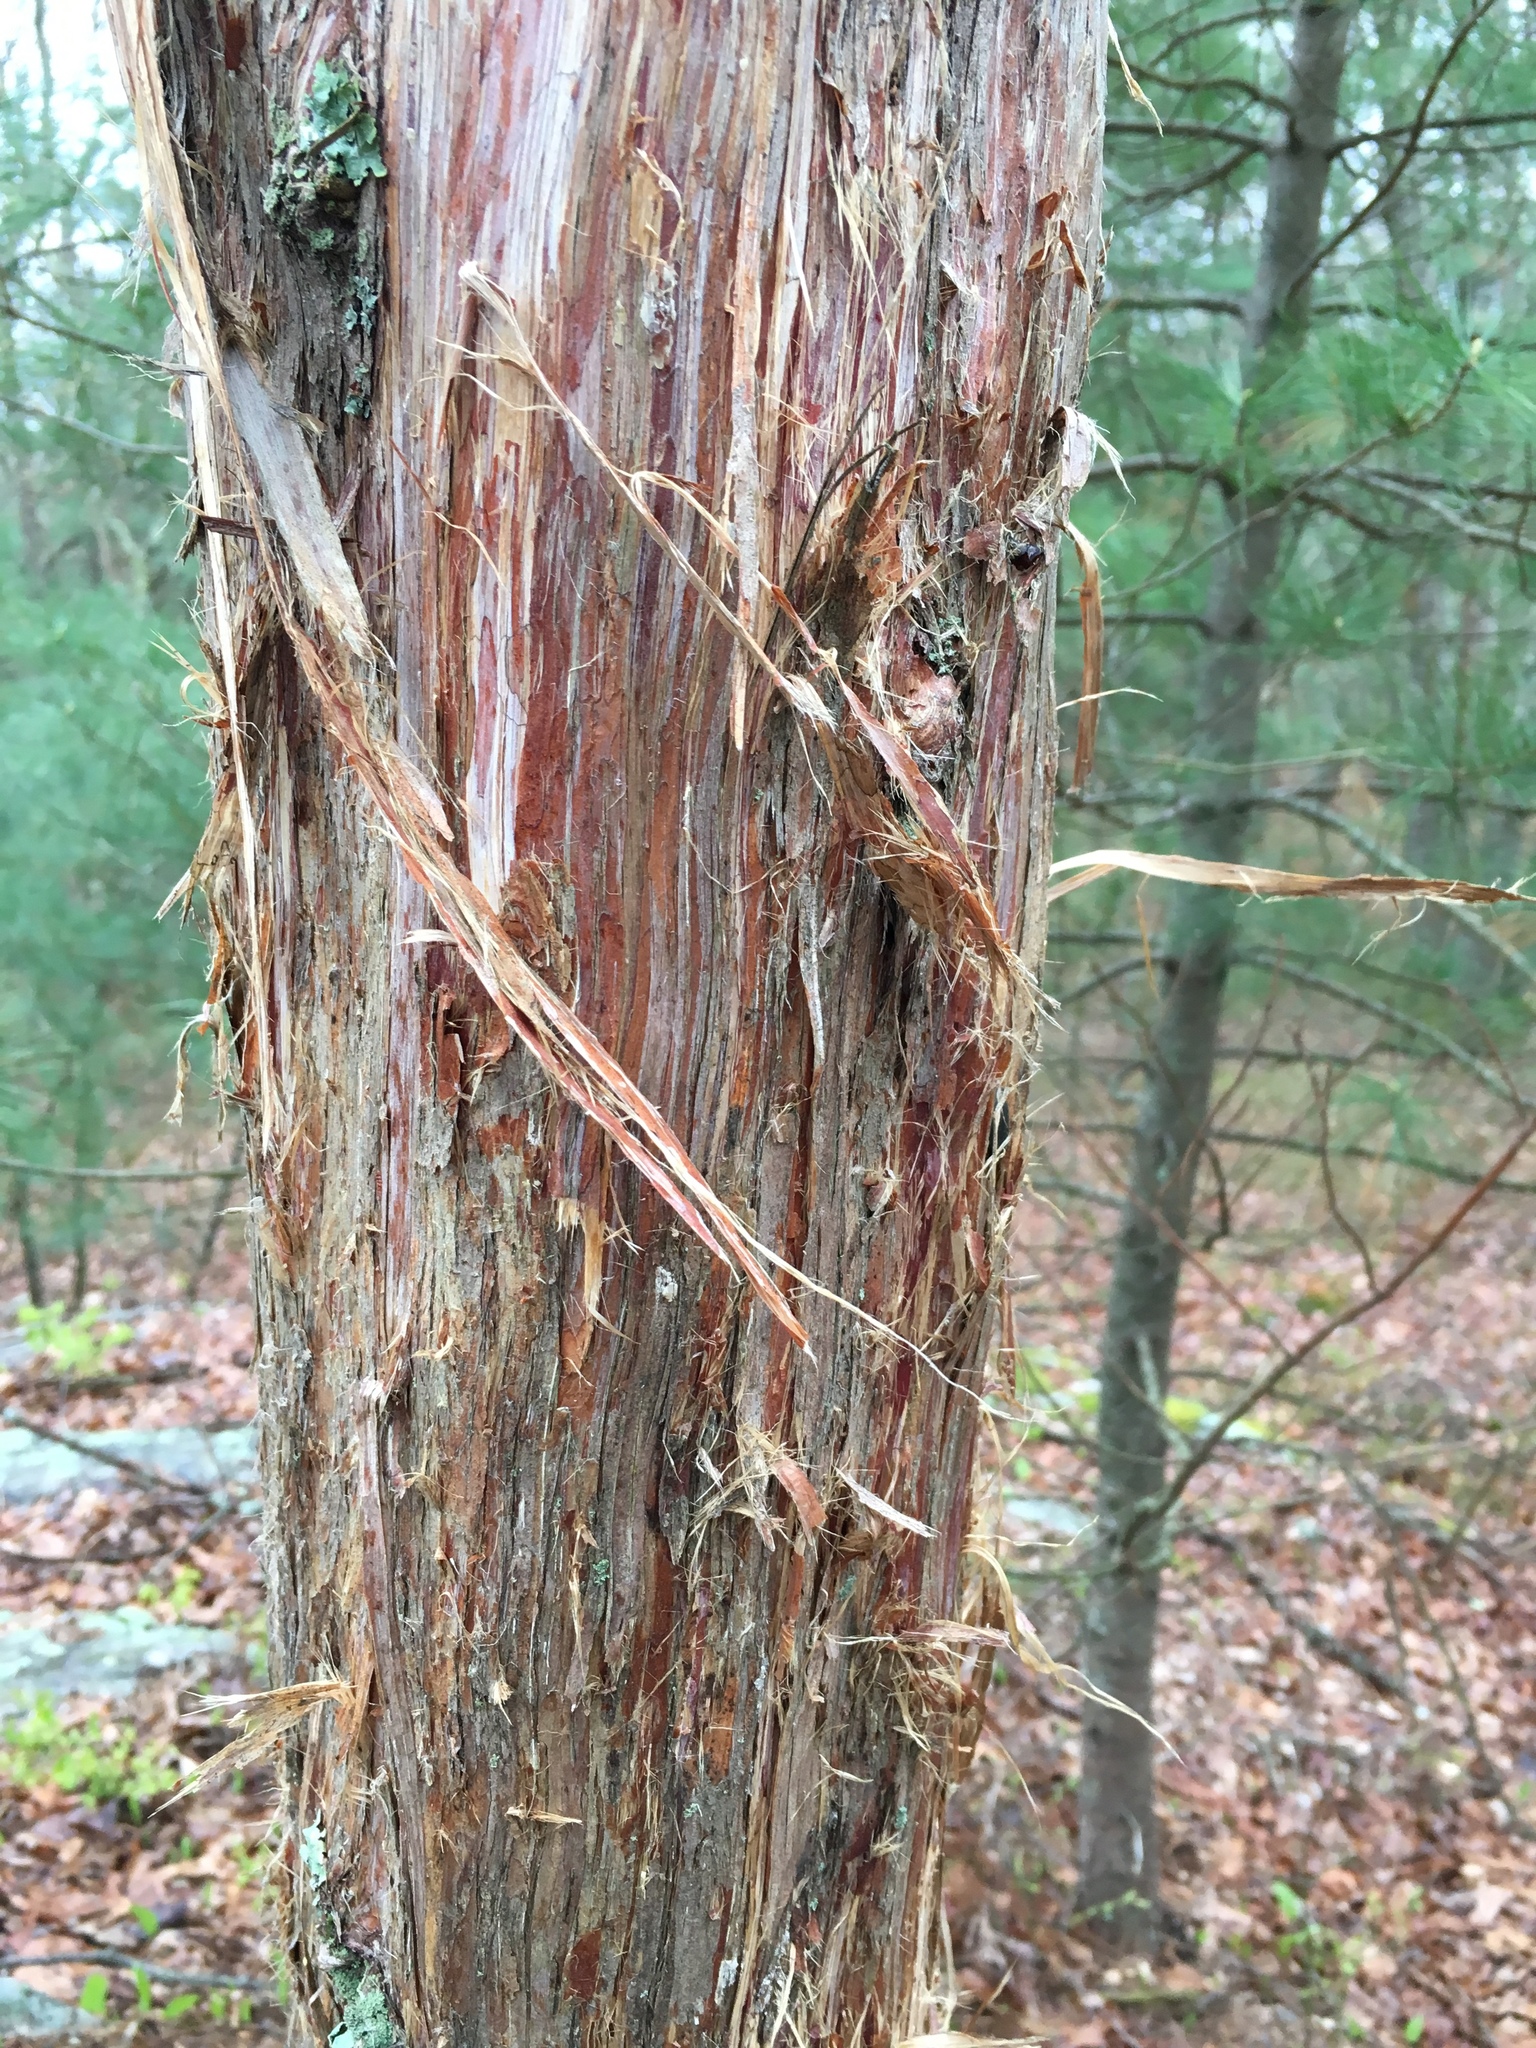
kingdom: Plantae
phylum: Tracheophyta
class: Pinopsida
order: Pinales
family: Cupressaceae
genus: Juniperus
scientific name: Juniperus virginiana
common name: Red juniper
